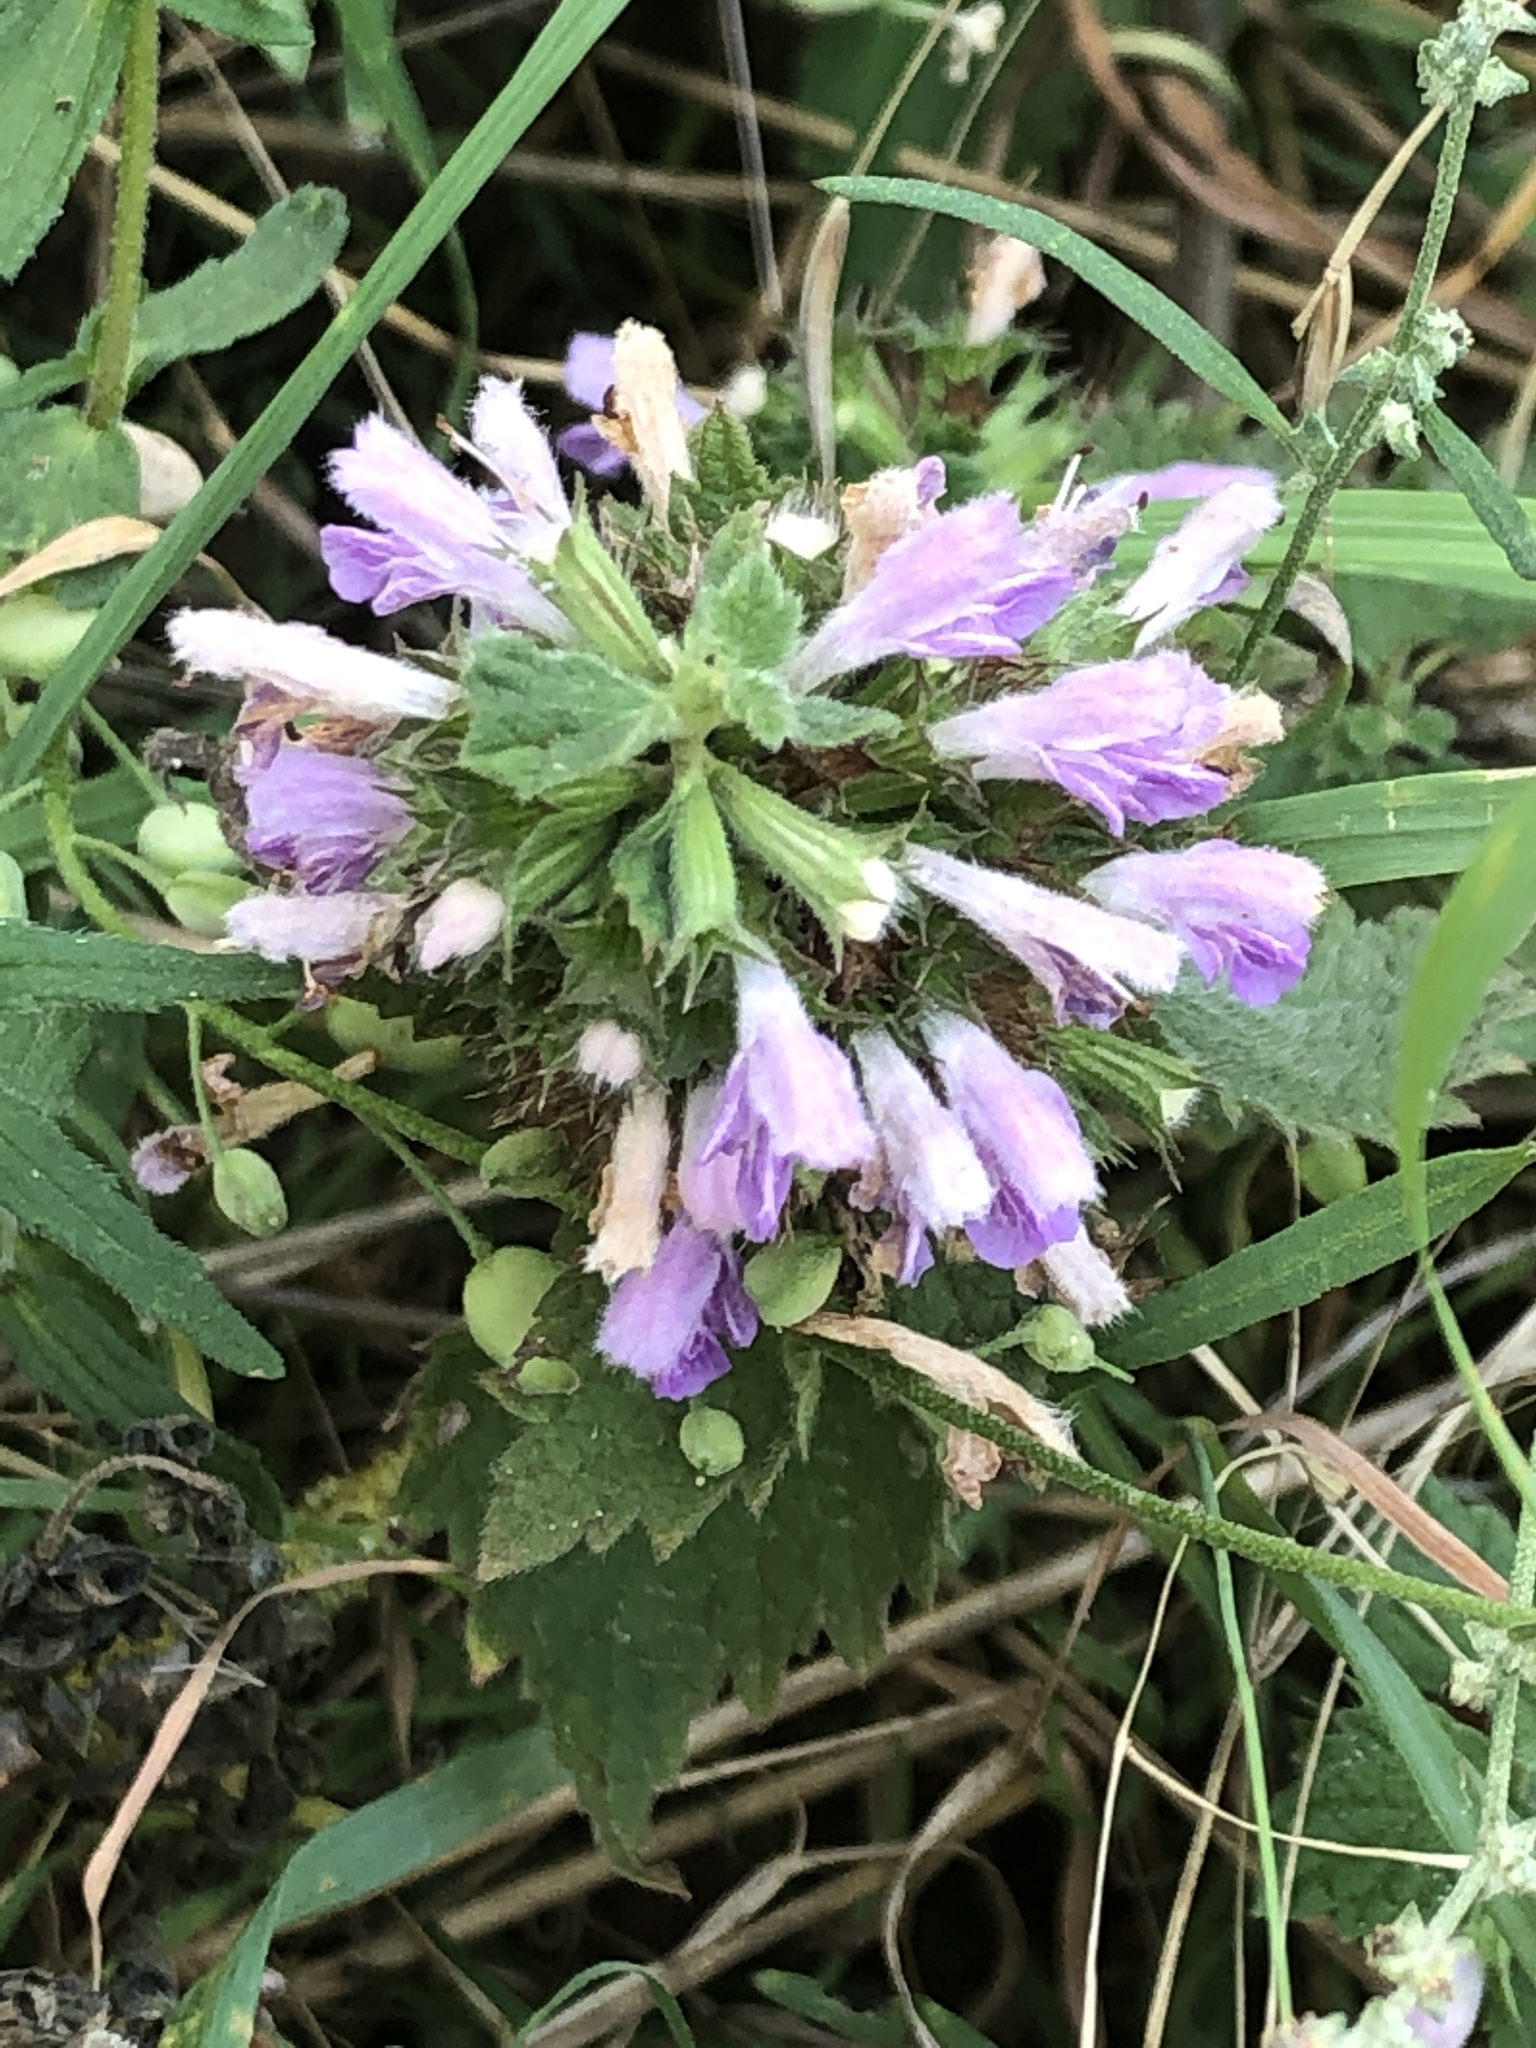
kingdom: Plantae
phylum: Tracheophyta
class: Magnoliopsida
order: Lamiales
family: Lamiaceae
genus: Ballota
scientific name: Ballota nigra
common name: Black horehound
